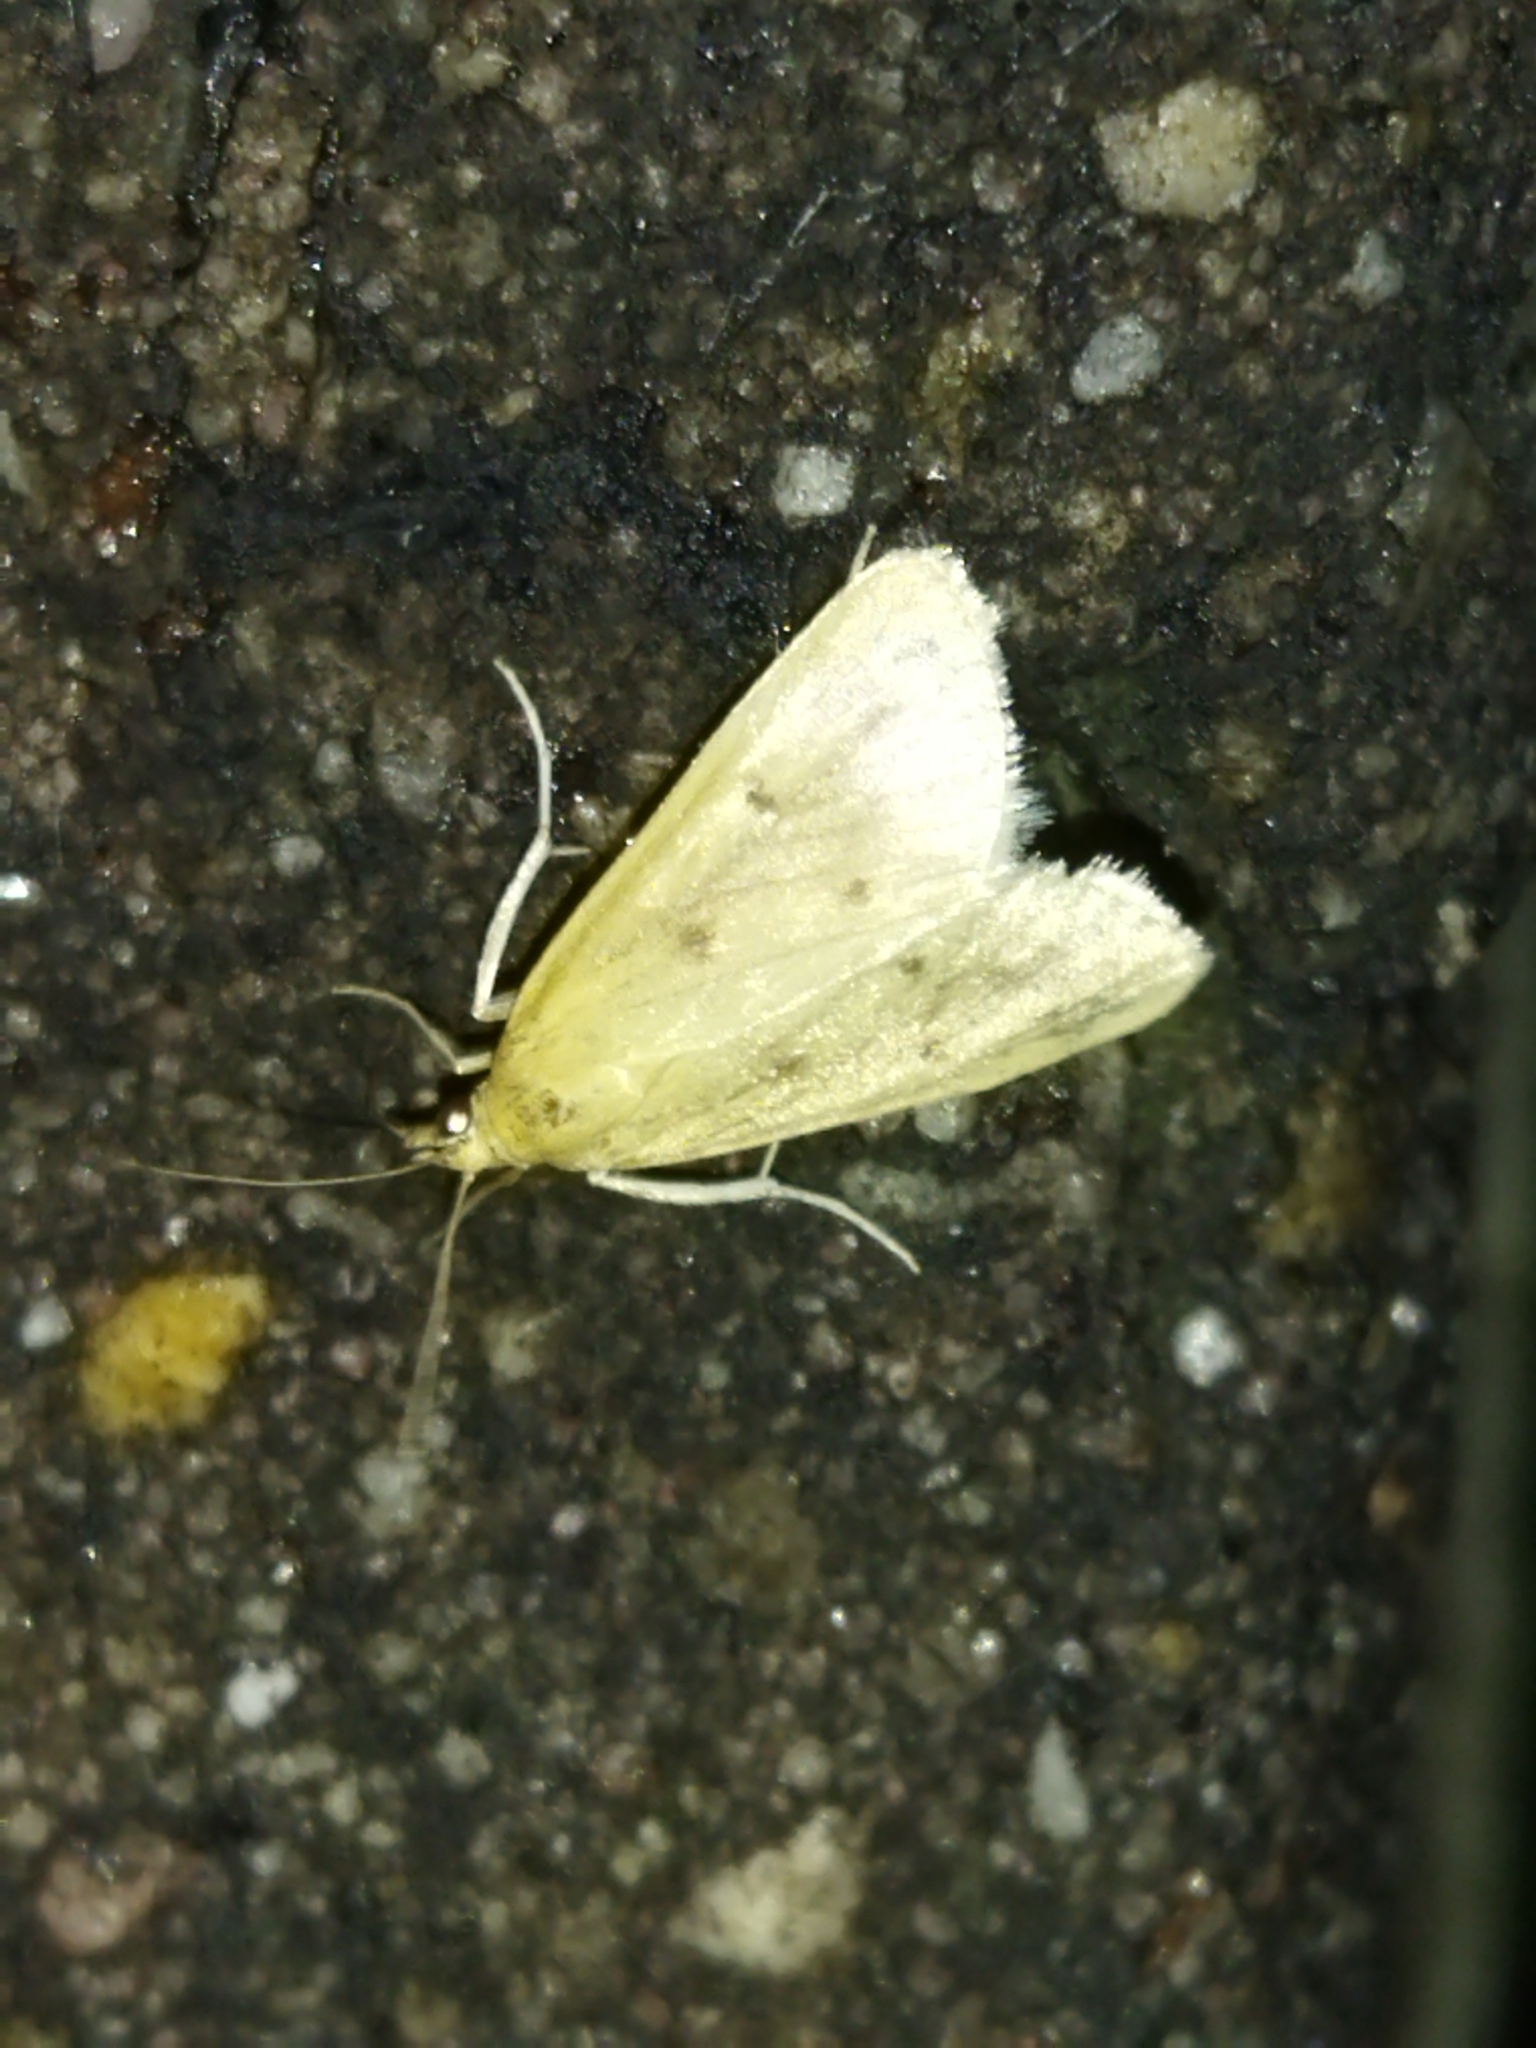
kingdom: Animalia
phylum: Arthropoda
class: Insecta
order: Lepidoptera
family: Crambidae
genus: Achyra
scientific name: Achyra nudalis
